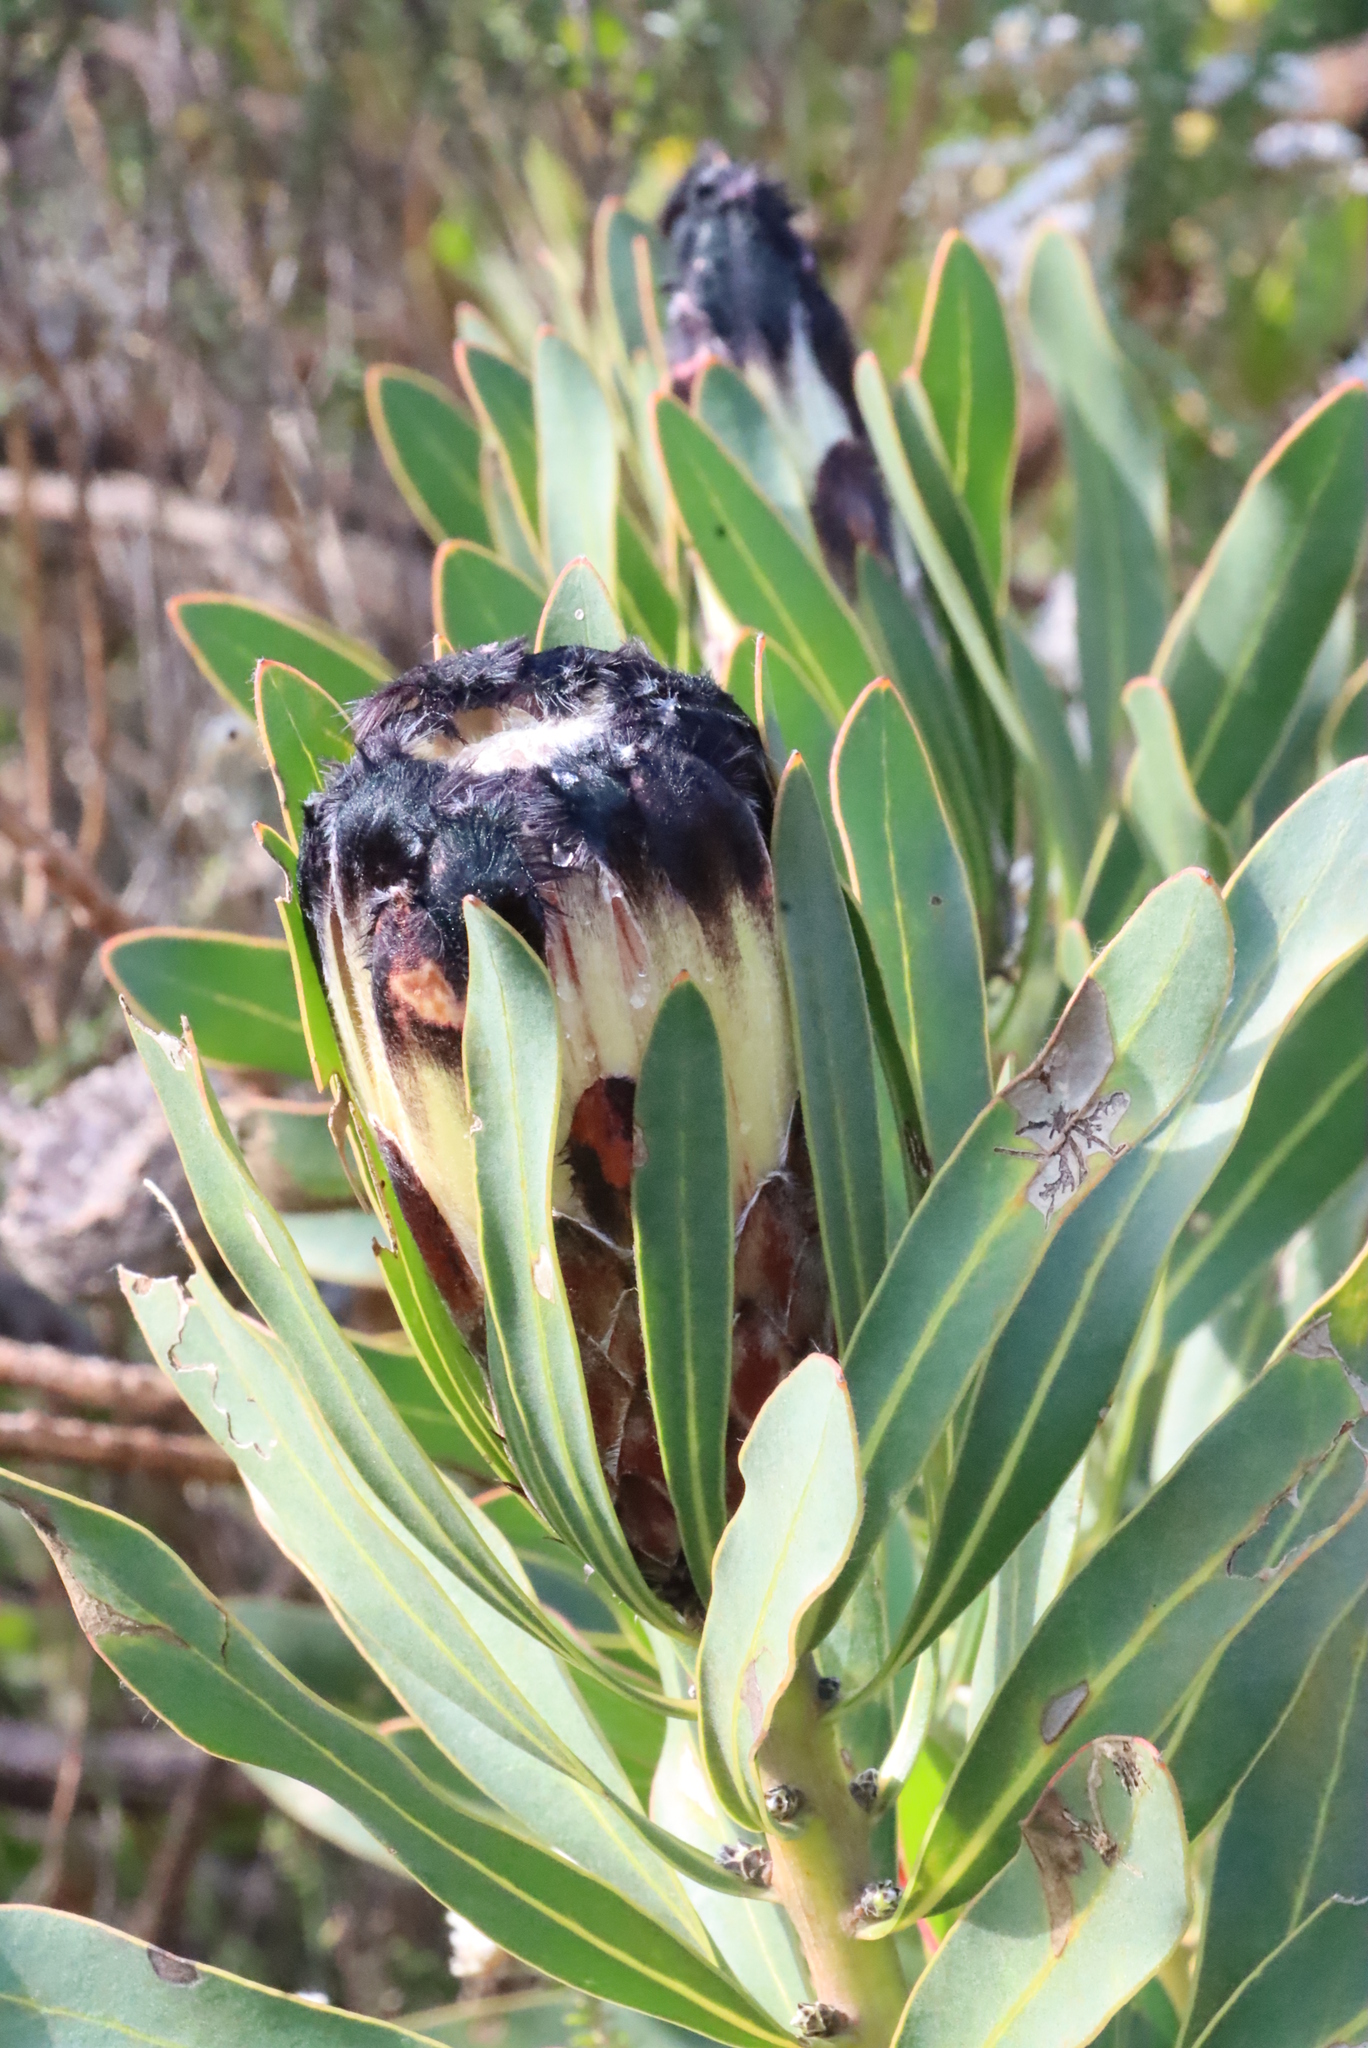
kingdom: Plantae
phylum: Tracheophyta
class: Magnoliopsida
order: Proteales
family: Proteaceae
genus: Protea
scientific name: Protea lepidocarpodendron
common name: Black-bearded protea
